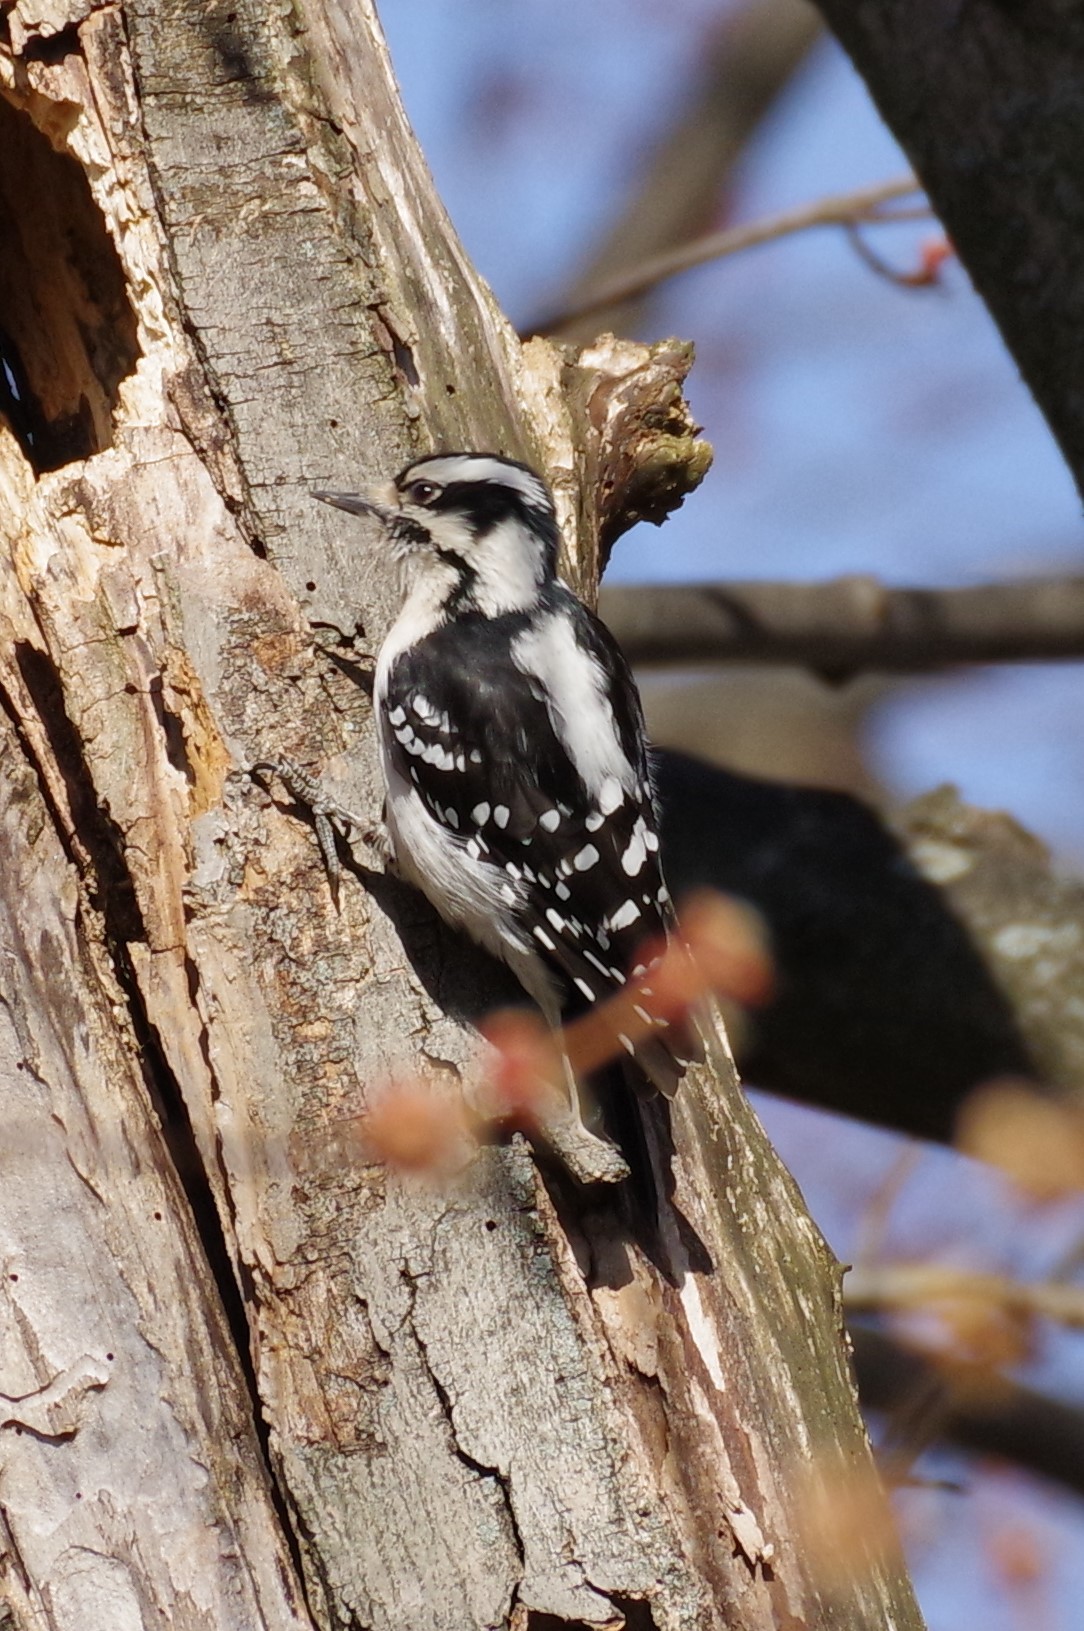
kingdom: Animalia
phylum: Chordata
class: Aves
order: Piciformes
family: Picidae
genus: Dryobates
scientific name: Dryobates pubescens
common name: Downy woodpecker
